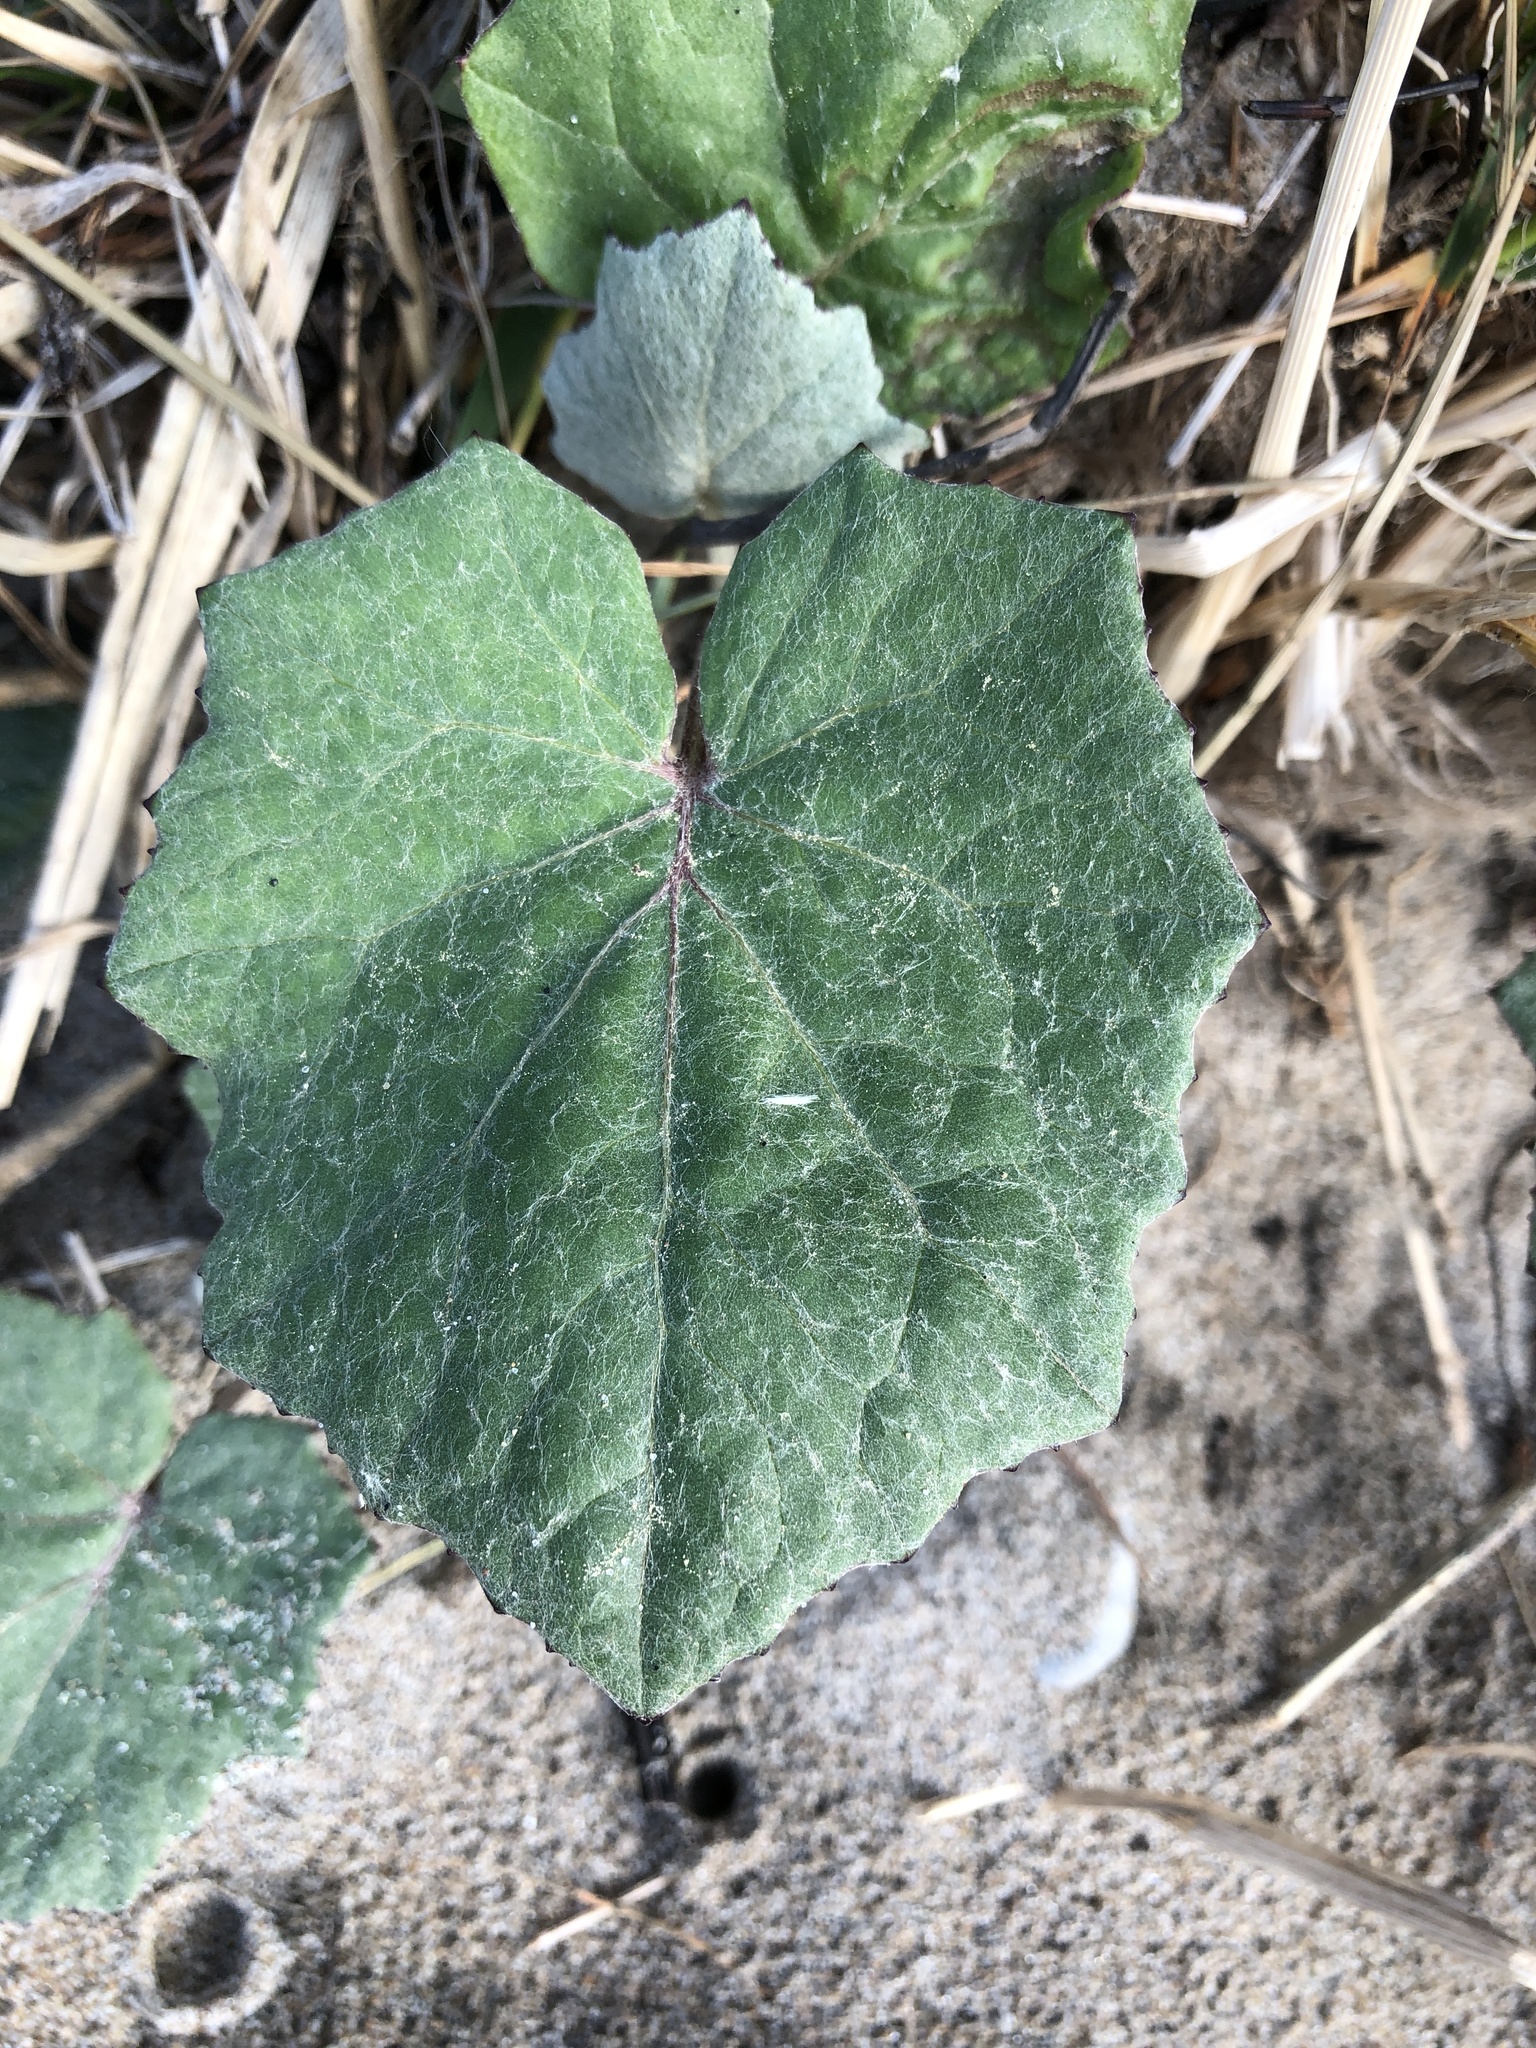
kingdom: Plantae
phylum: Tracheophyta
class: Magnoliopsida
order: Asterales
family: Asteraceae
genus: Tussilago
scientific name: Tussilago farfara
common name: Coltsfoot
